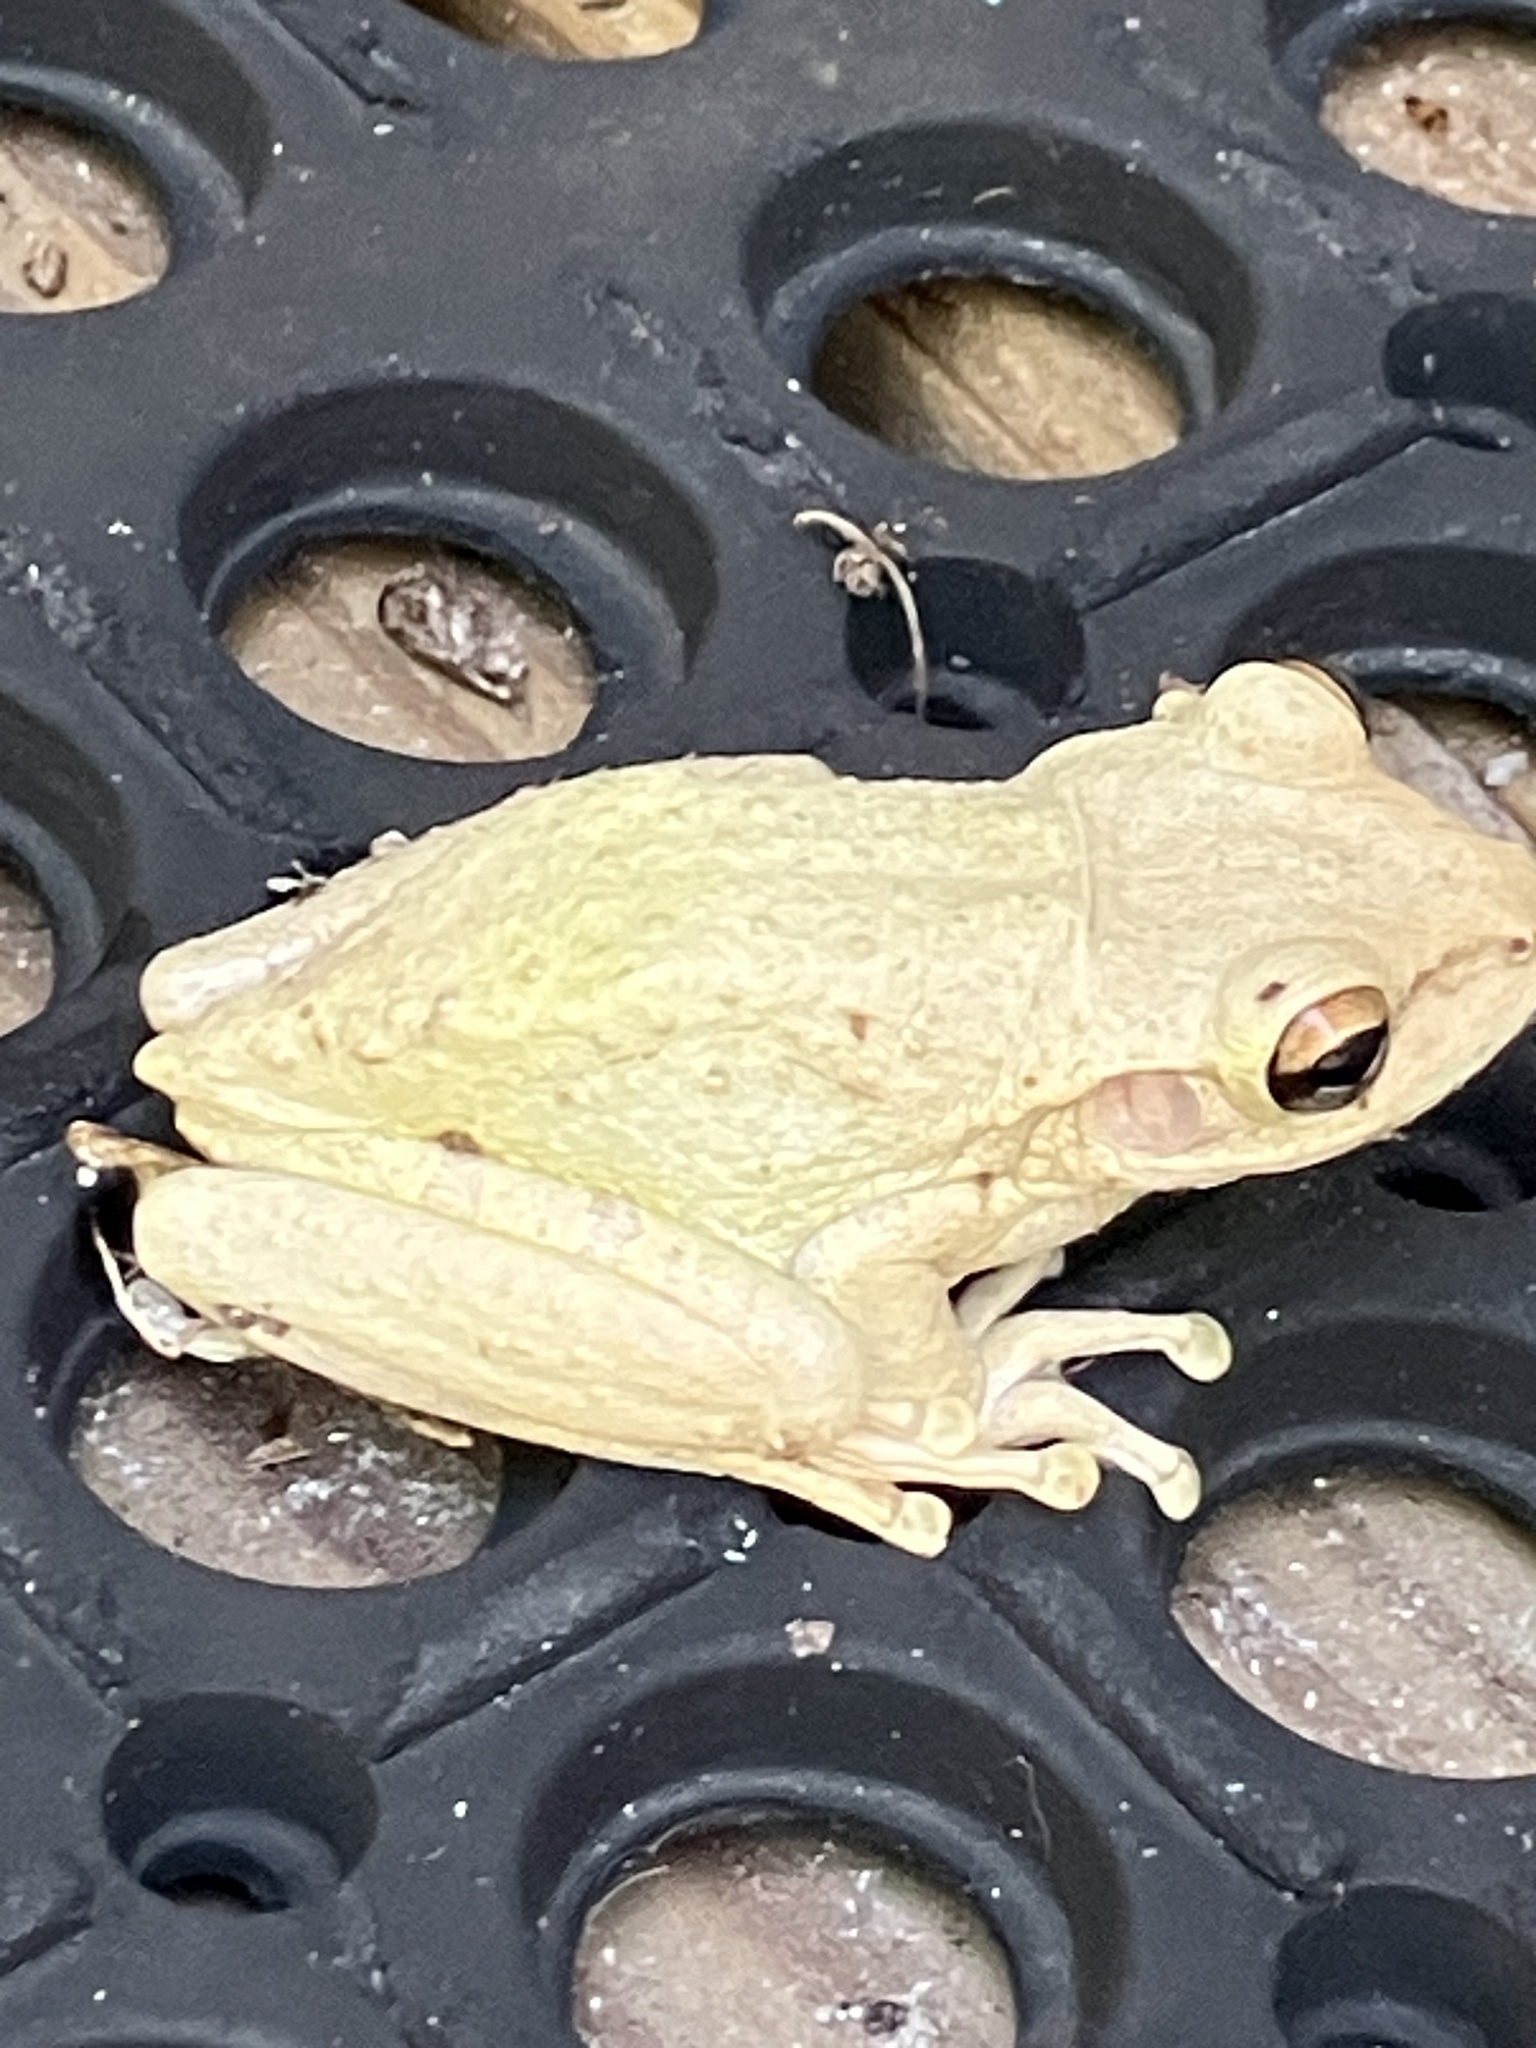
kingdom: Animalia
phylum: Chordata
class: Amphibia
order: Anura
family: Hylidae
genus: Osteopilus
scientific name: Osteopilus septentrionalis
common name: Cuban treefrog
